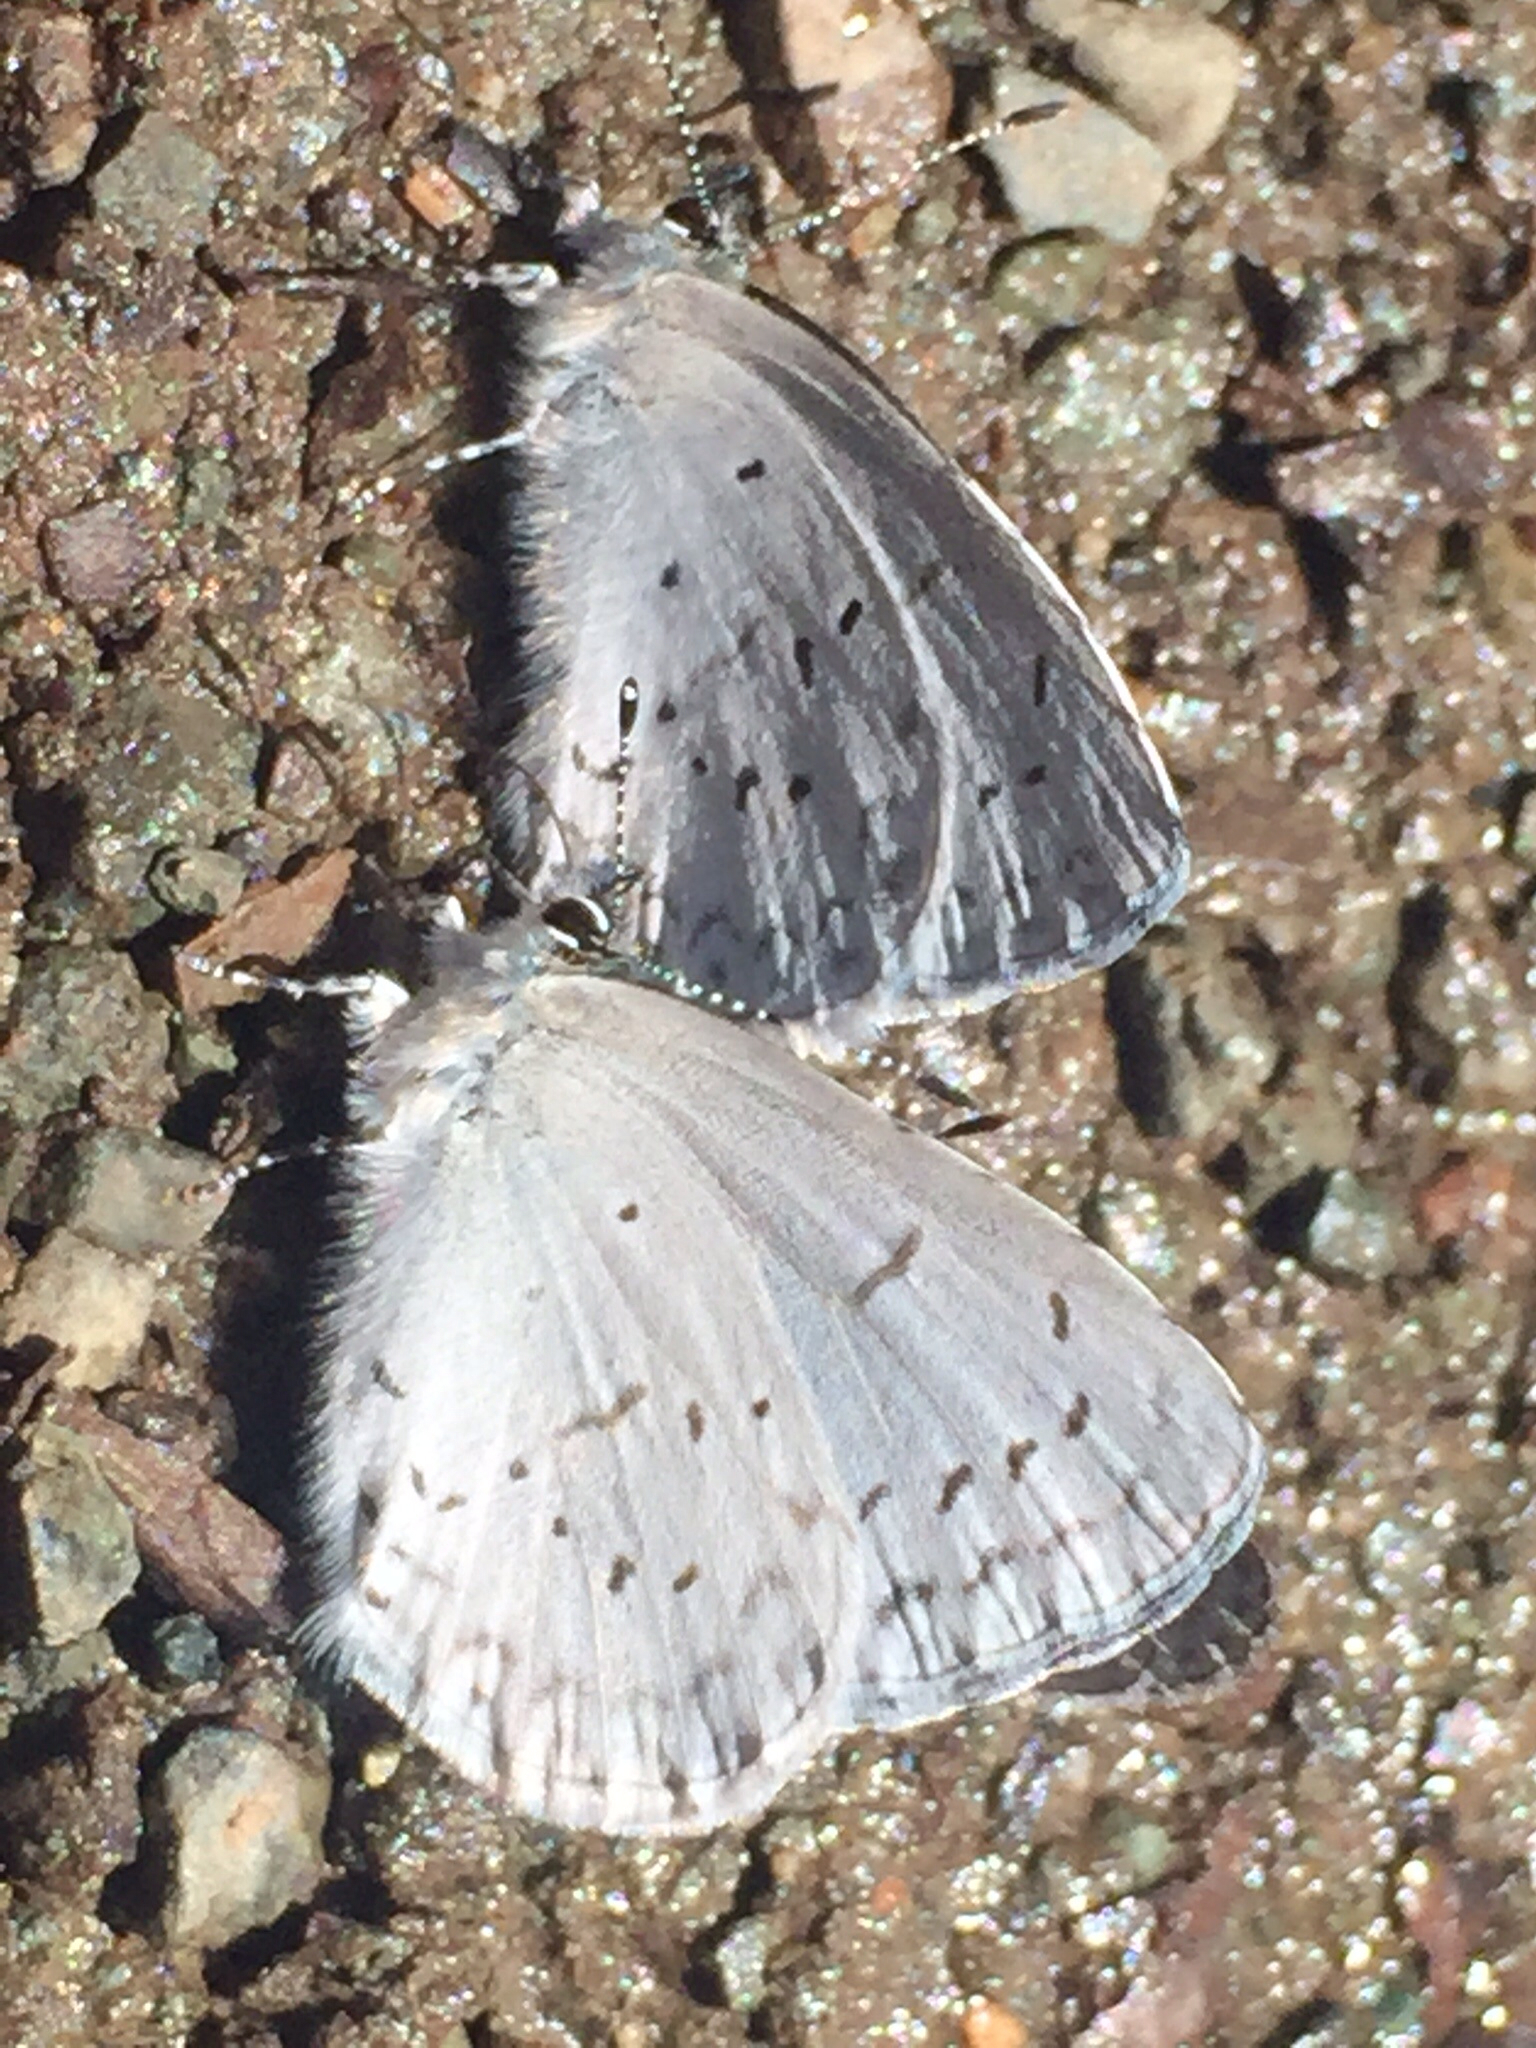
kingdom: Animalia
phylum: Arthropoda
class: Insecta
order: Lepidoptera
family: Lycaenidae
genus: Celastrina
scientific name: Celastrina ladon
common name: Spring azure
